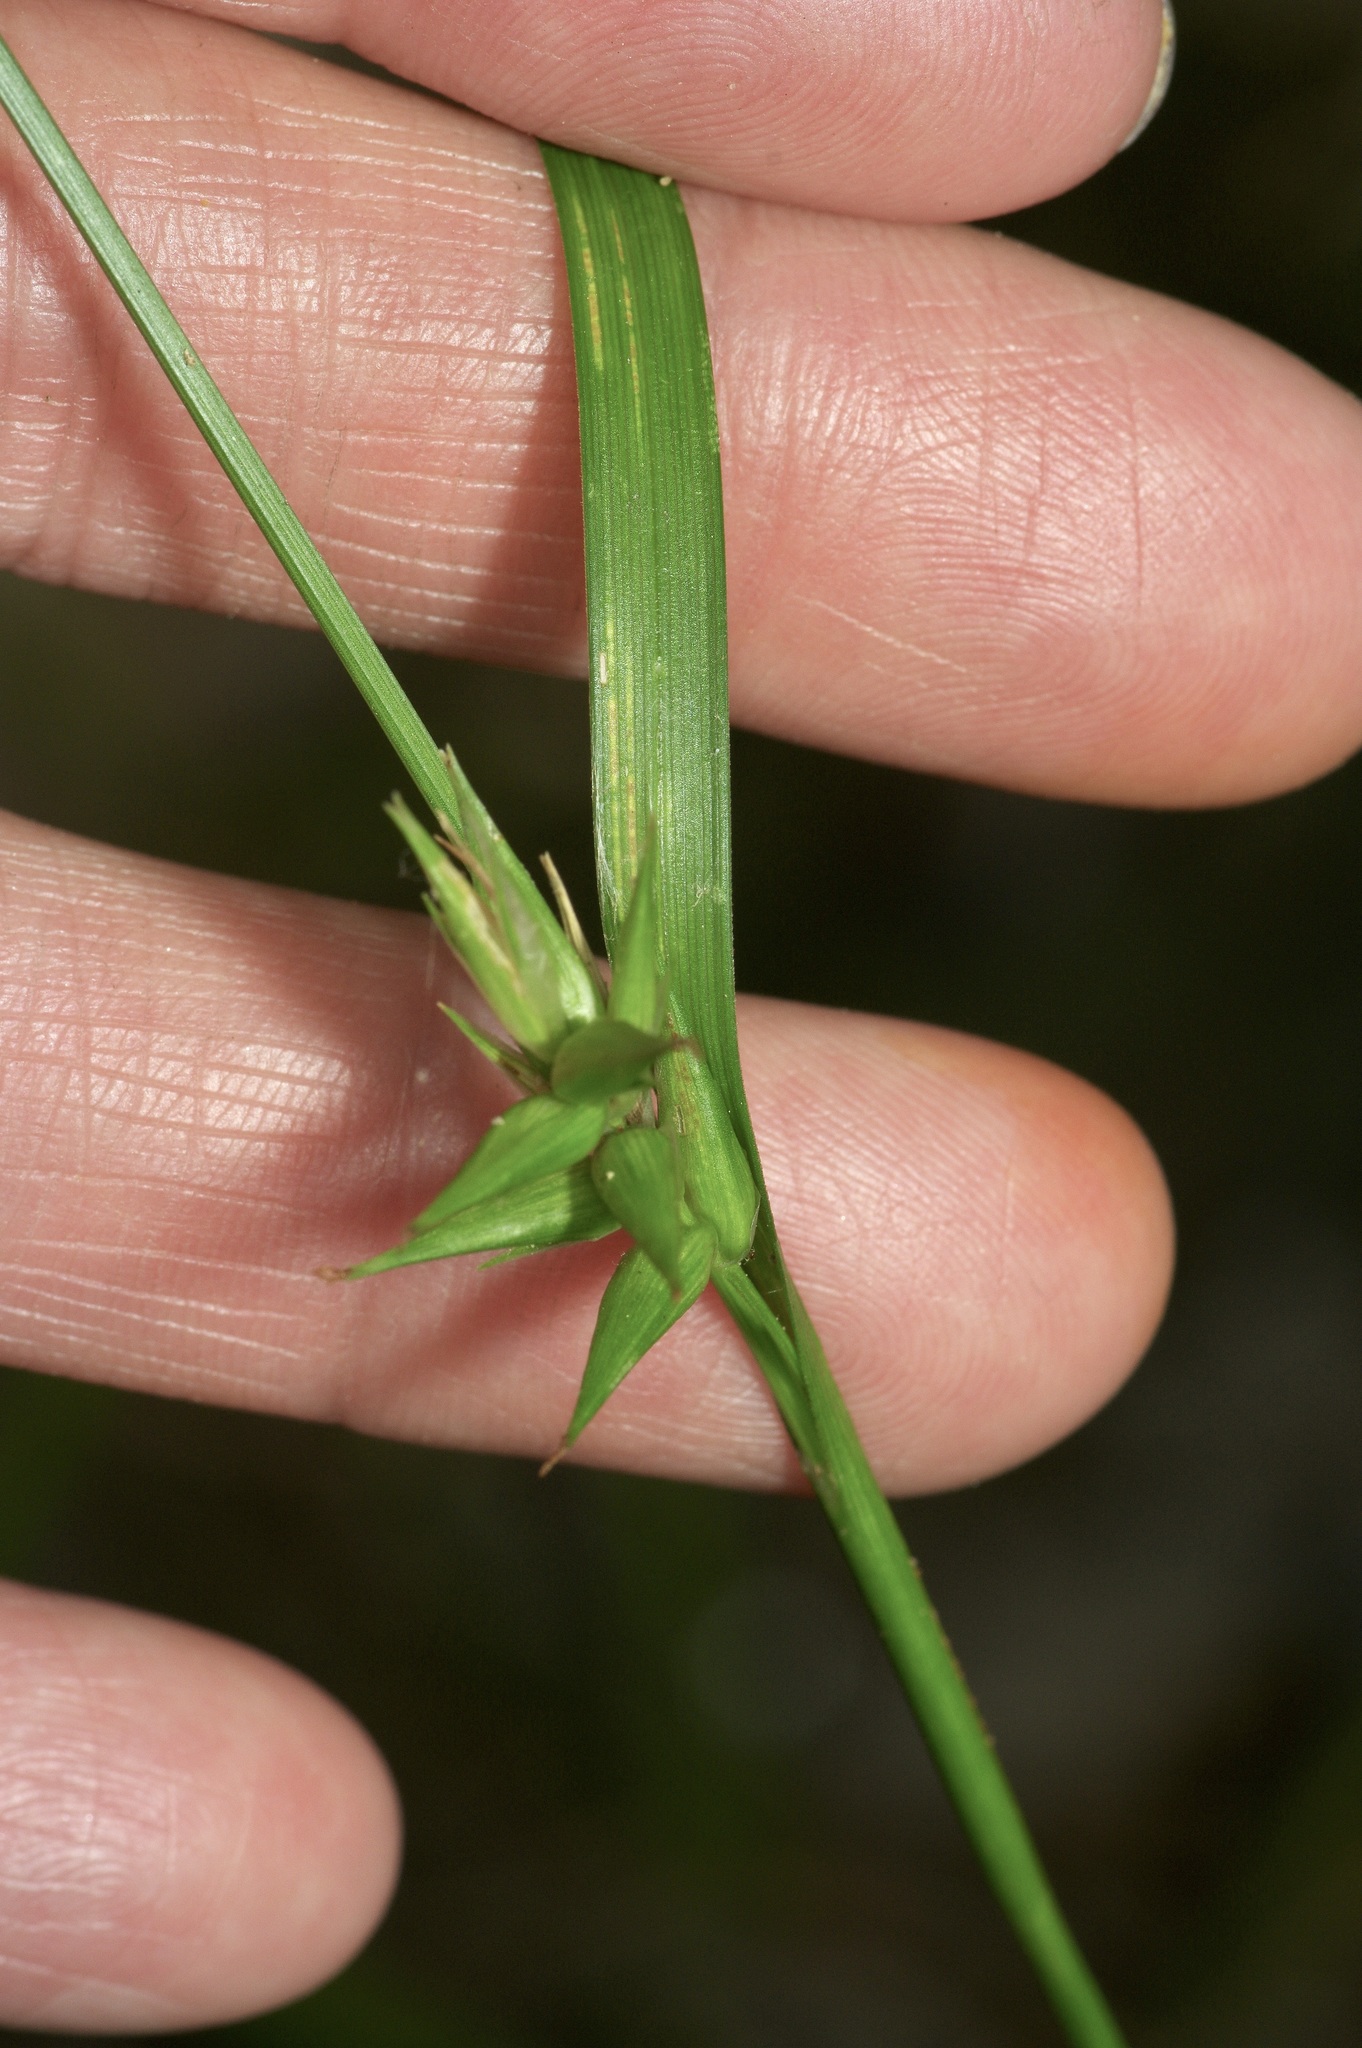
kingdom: Plantae
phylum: Tracheophyta
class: Liliopsida
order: Poales
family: Cyperaceae
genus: Carex
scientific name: Carex lonchocarpa
